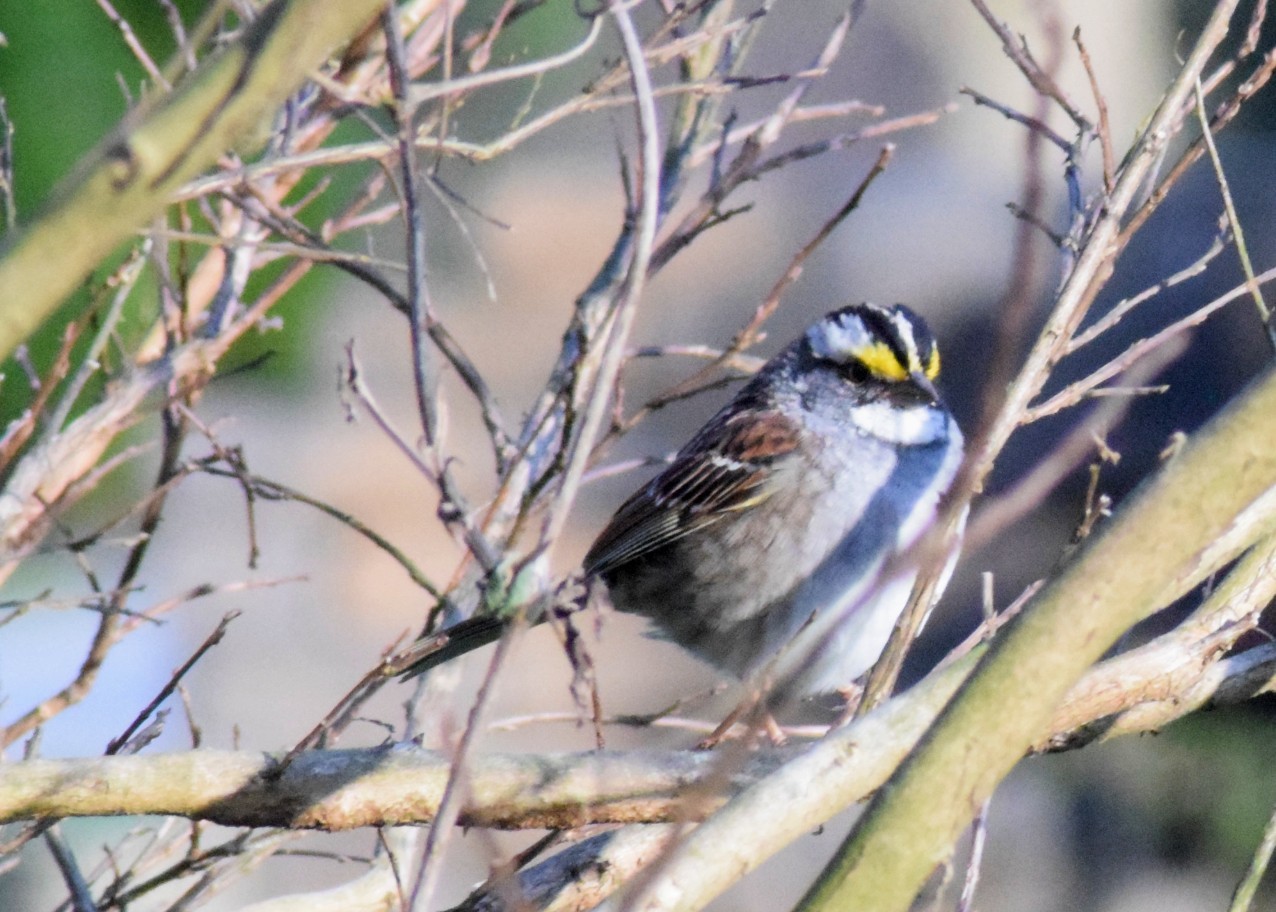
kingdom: Animalia
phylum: Chordata
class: Aves
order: Passeriformes
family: Passerellidae
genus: Zonotrichia
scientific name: Zonotrichia albicollis
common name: White-throated sparrow
